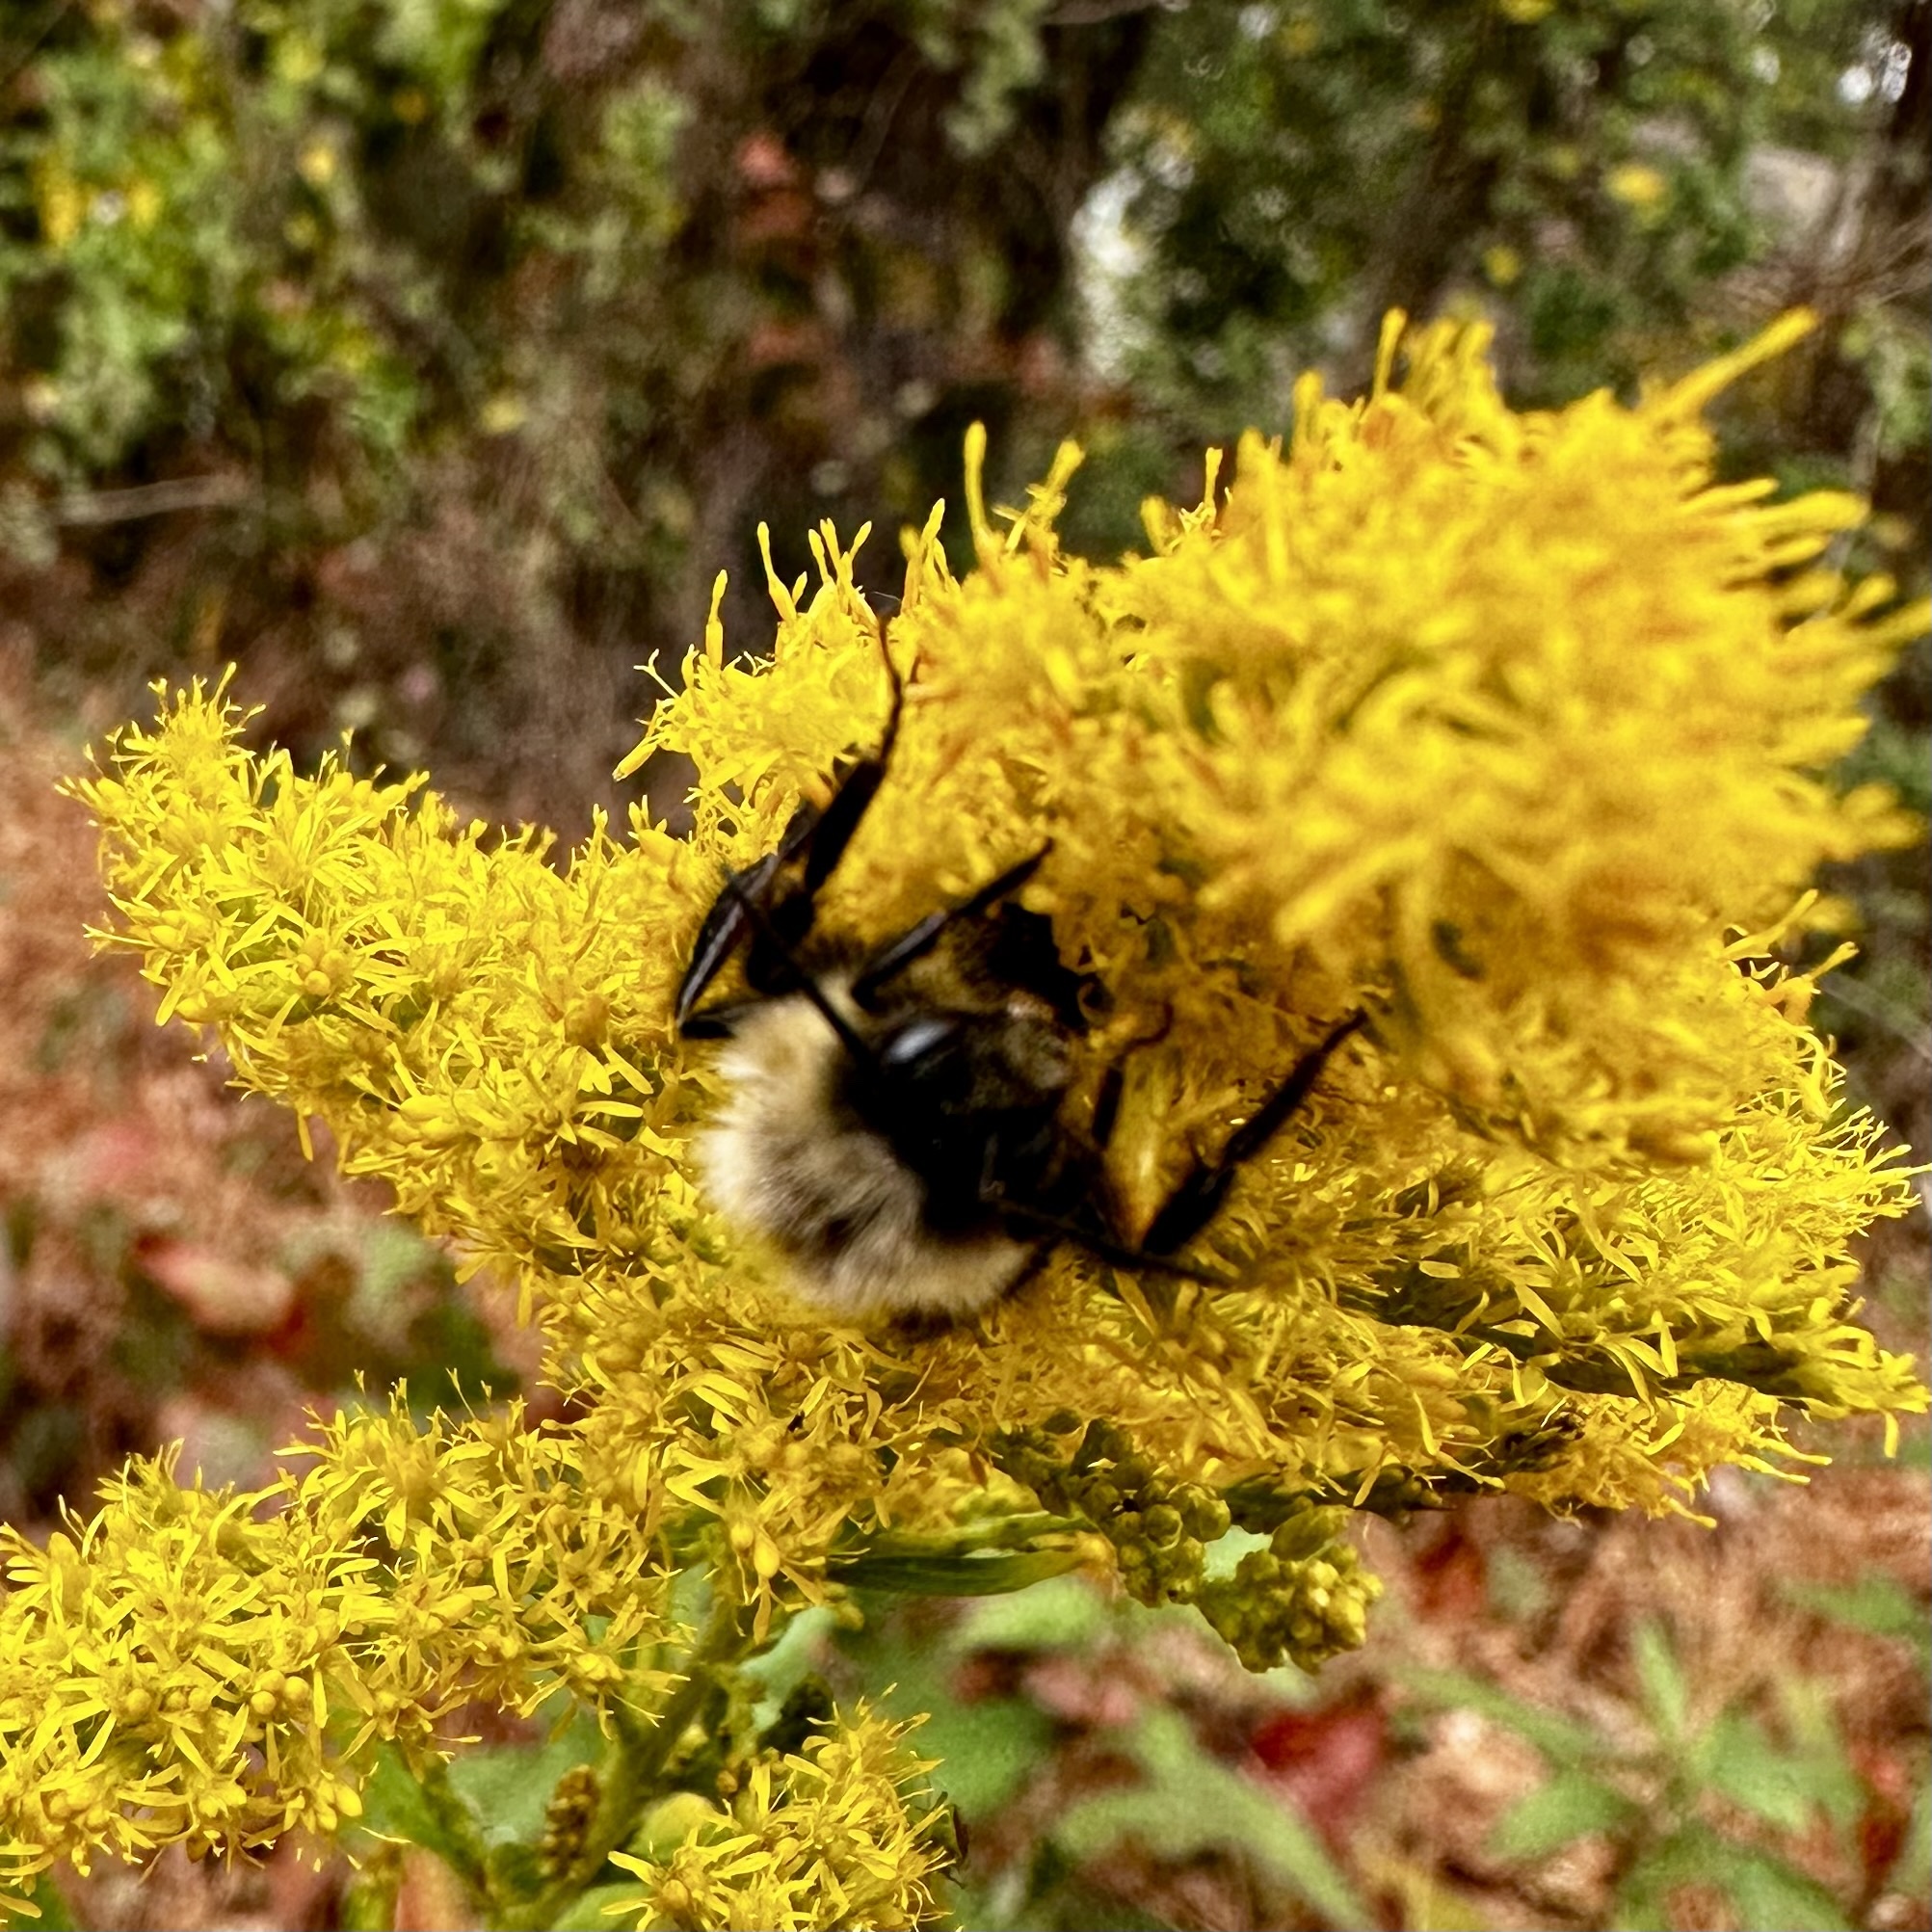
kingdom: Animalia
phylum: Arthropoda
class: Insecta
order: Hymenoptera
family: Apidae
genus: Bombus
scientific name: Bombus impatiens
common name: Common eastern bumble bee
